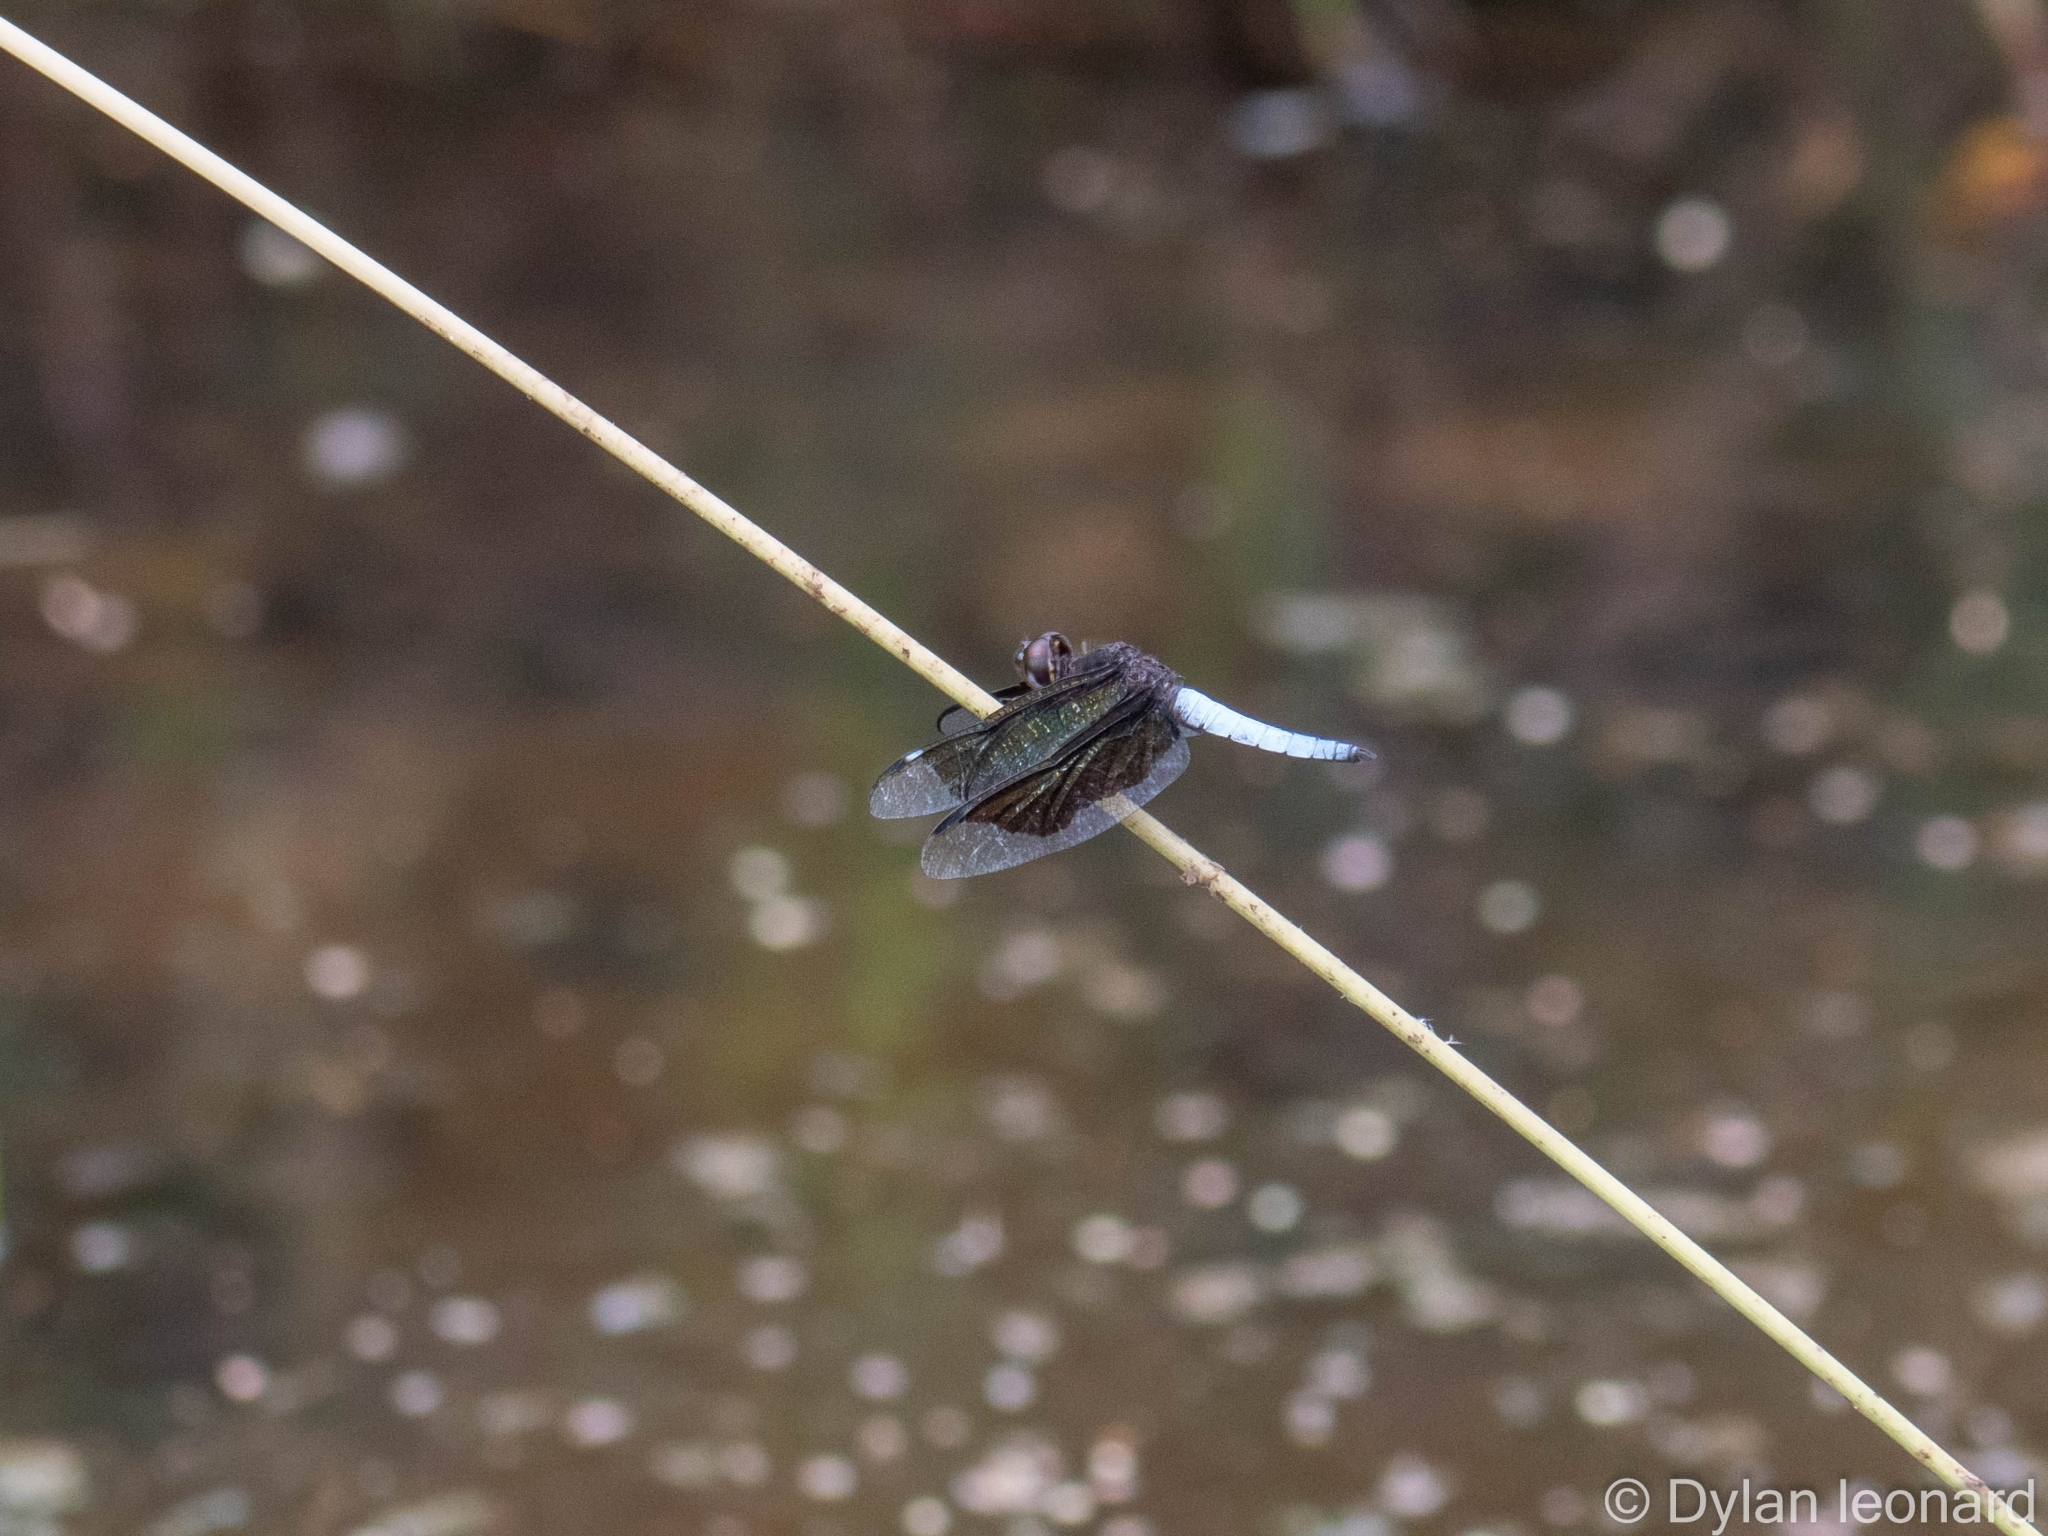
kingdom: Animalia
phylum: Arthropoda
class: Insecta
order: Odonata
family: Libellulidae
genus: Palpopleura
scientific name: Palpopleura lucia
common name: Lucia widow
